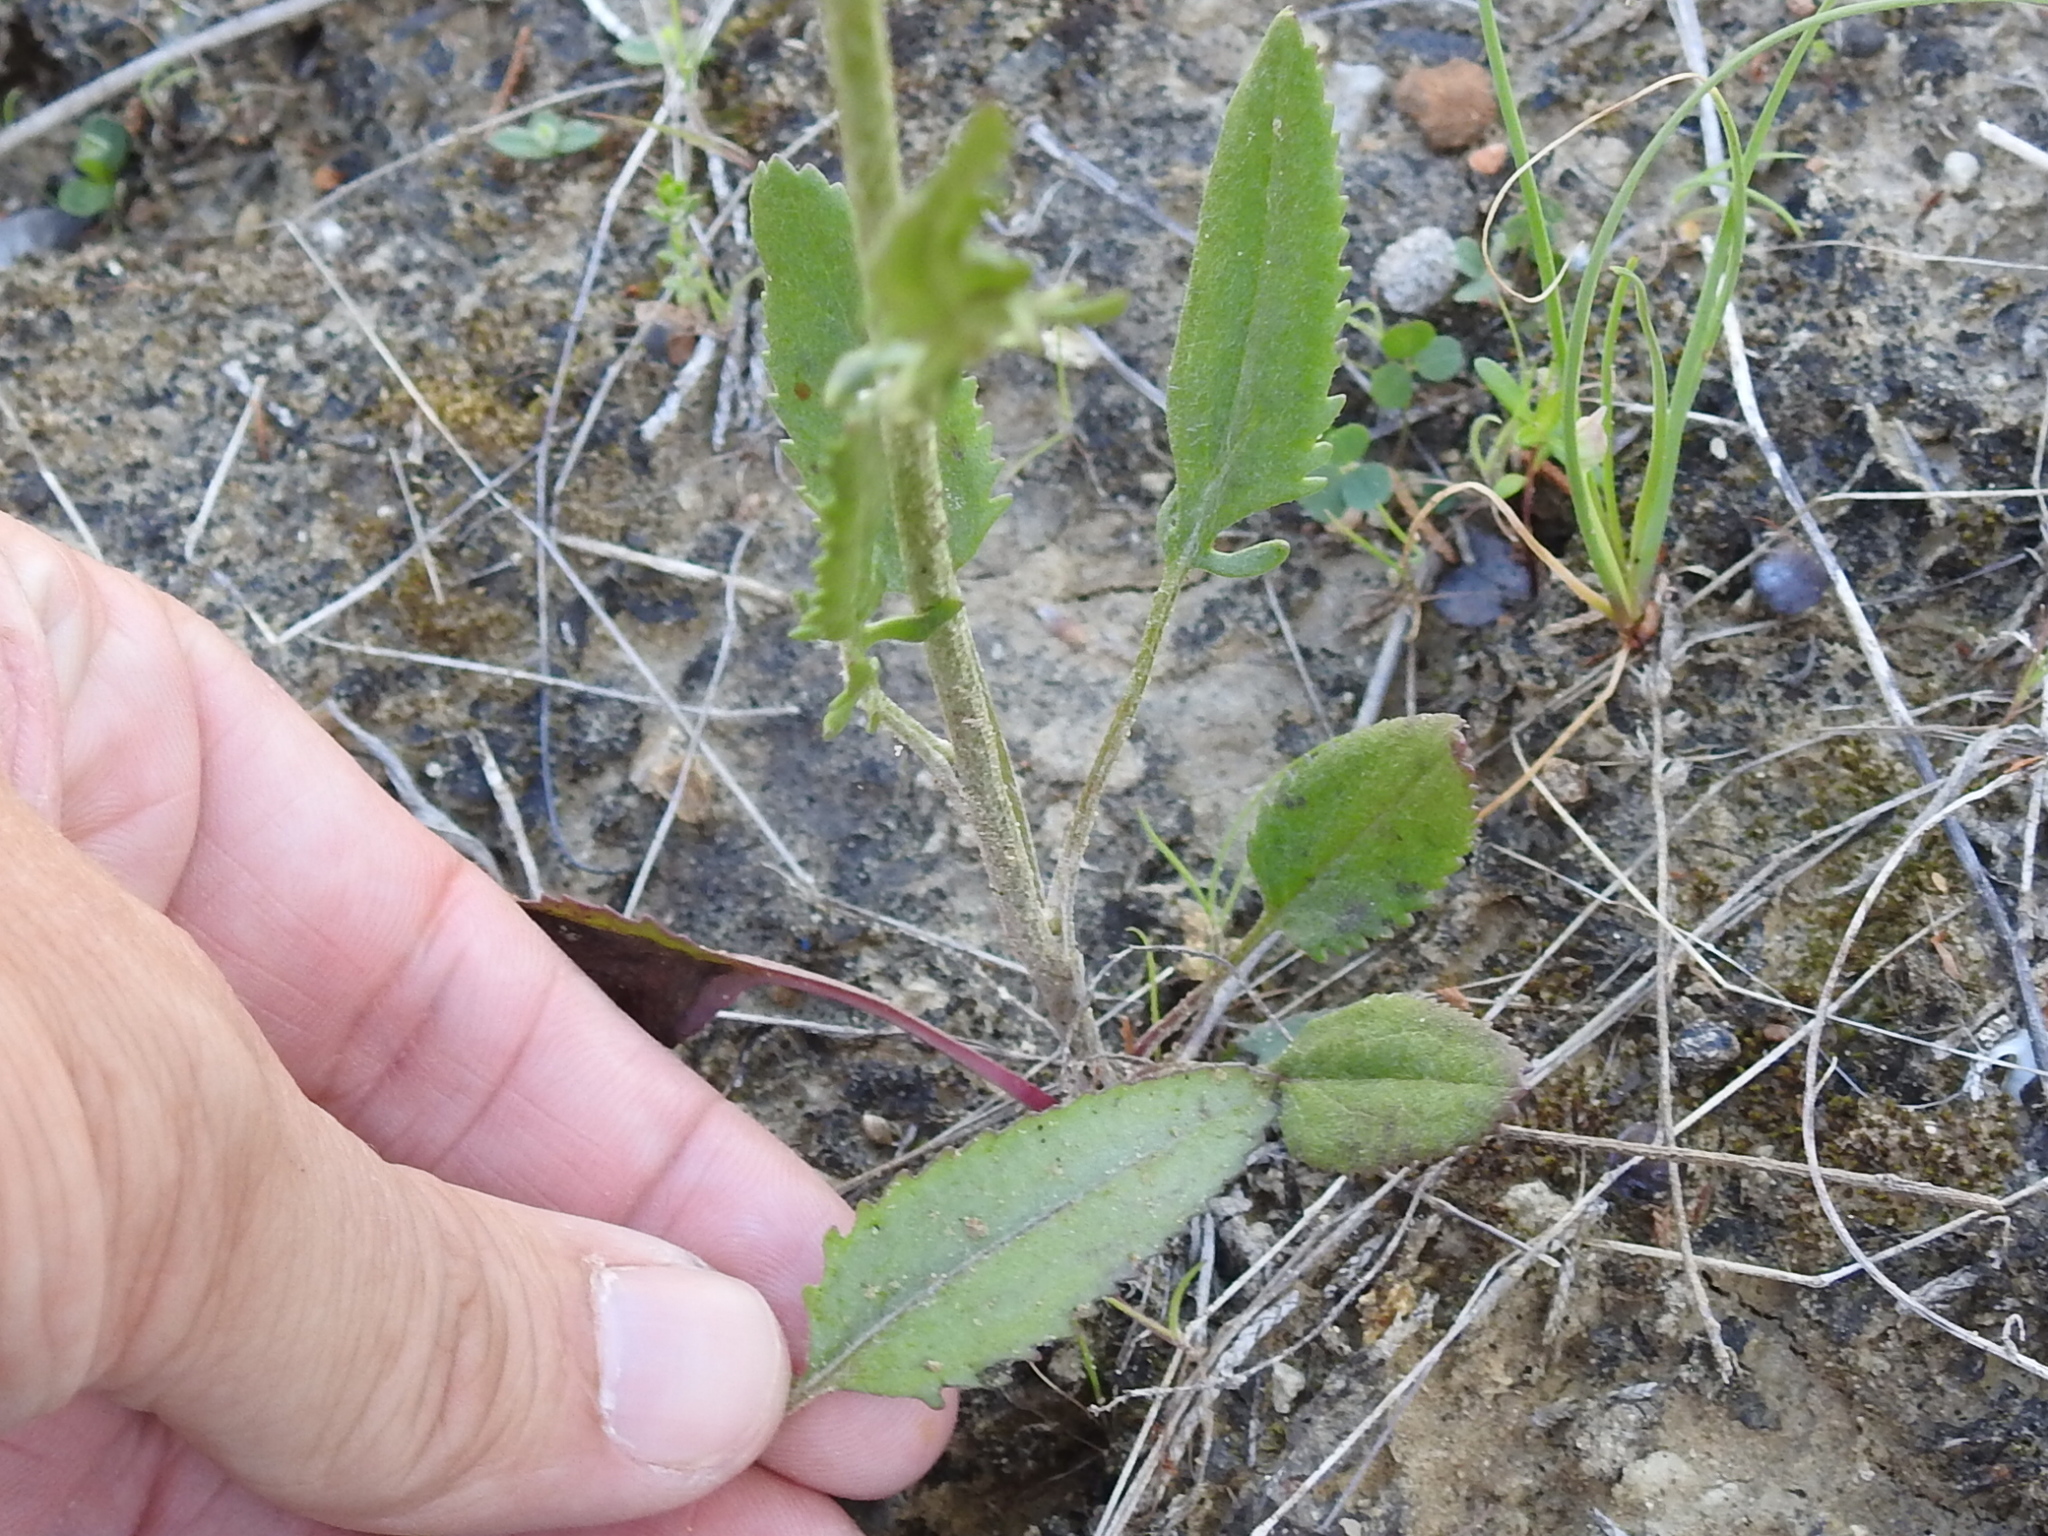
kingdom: Plantae
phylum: Tracheophyta
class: Magnoliopsida
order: Asterales
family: Asteraceae
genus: Packera
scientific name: Packera plattensis
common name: Prairie groundsel
